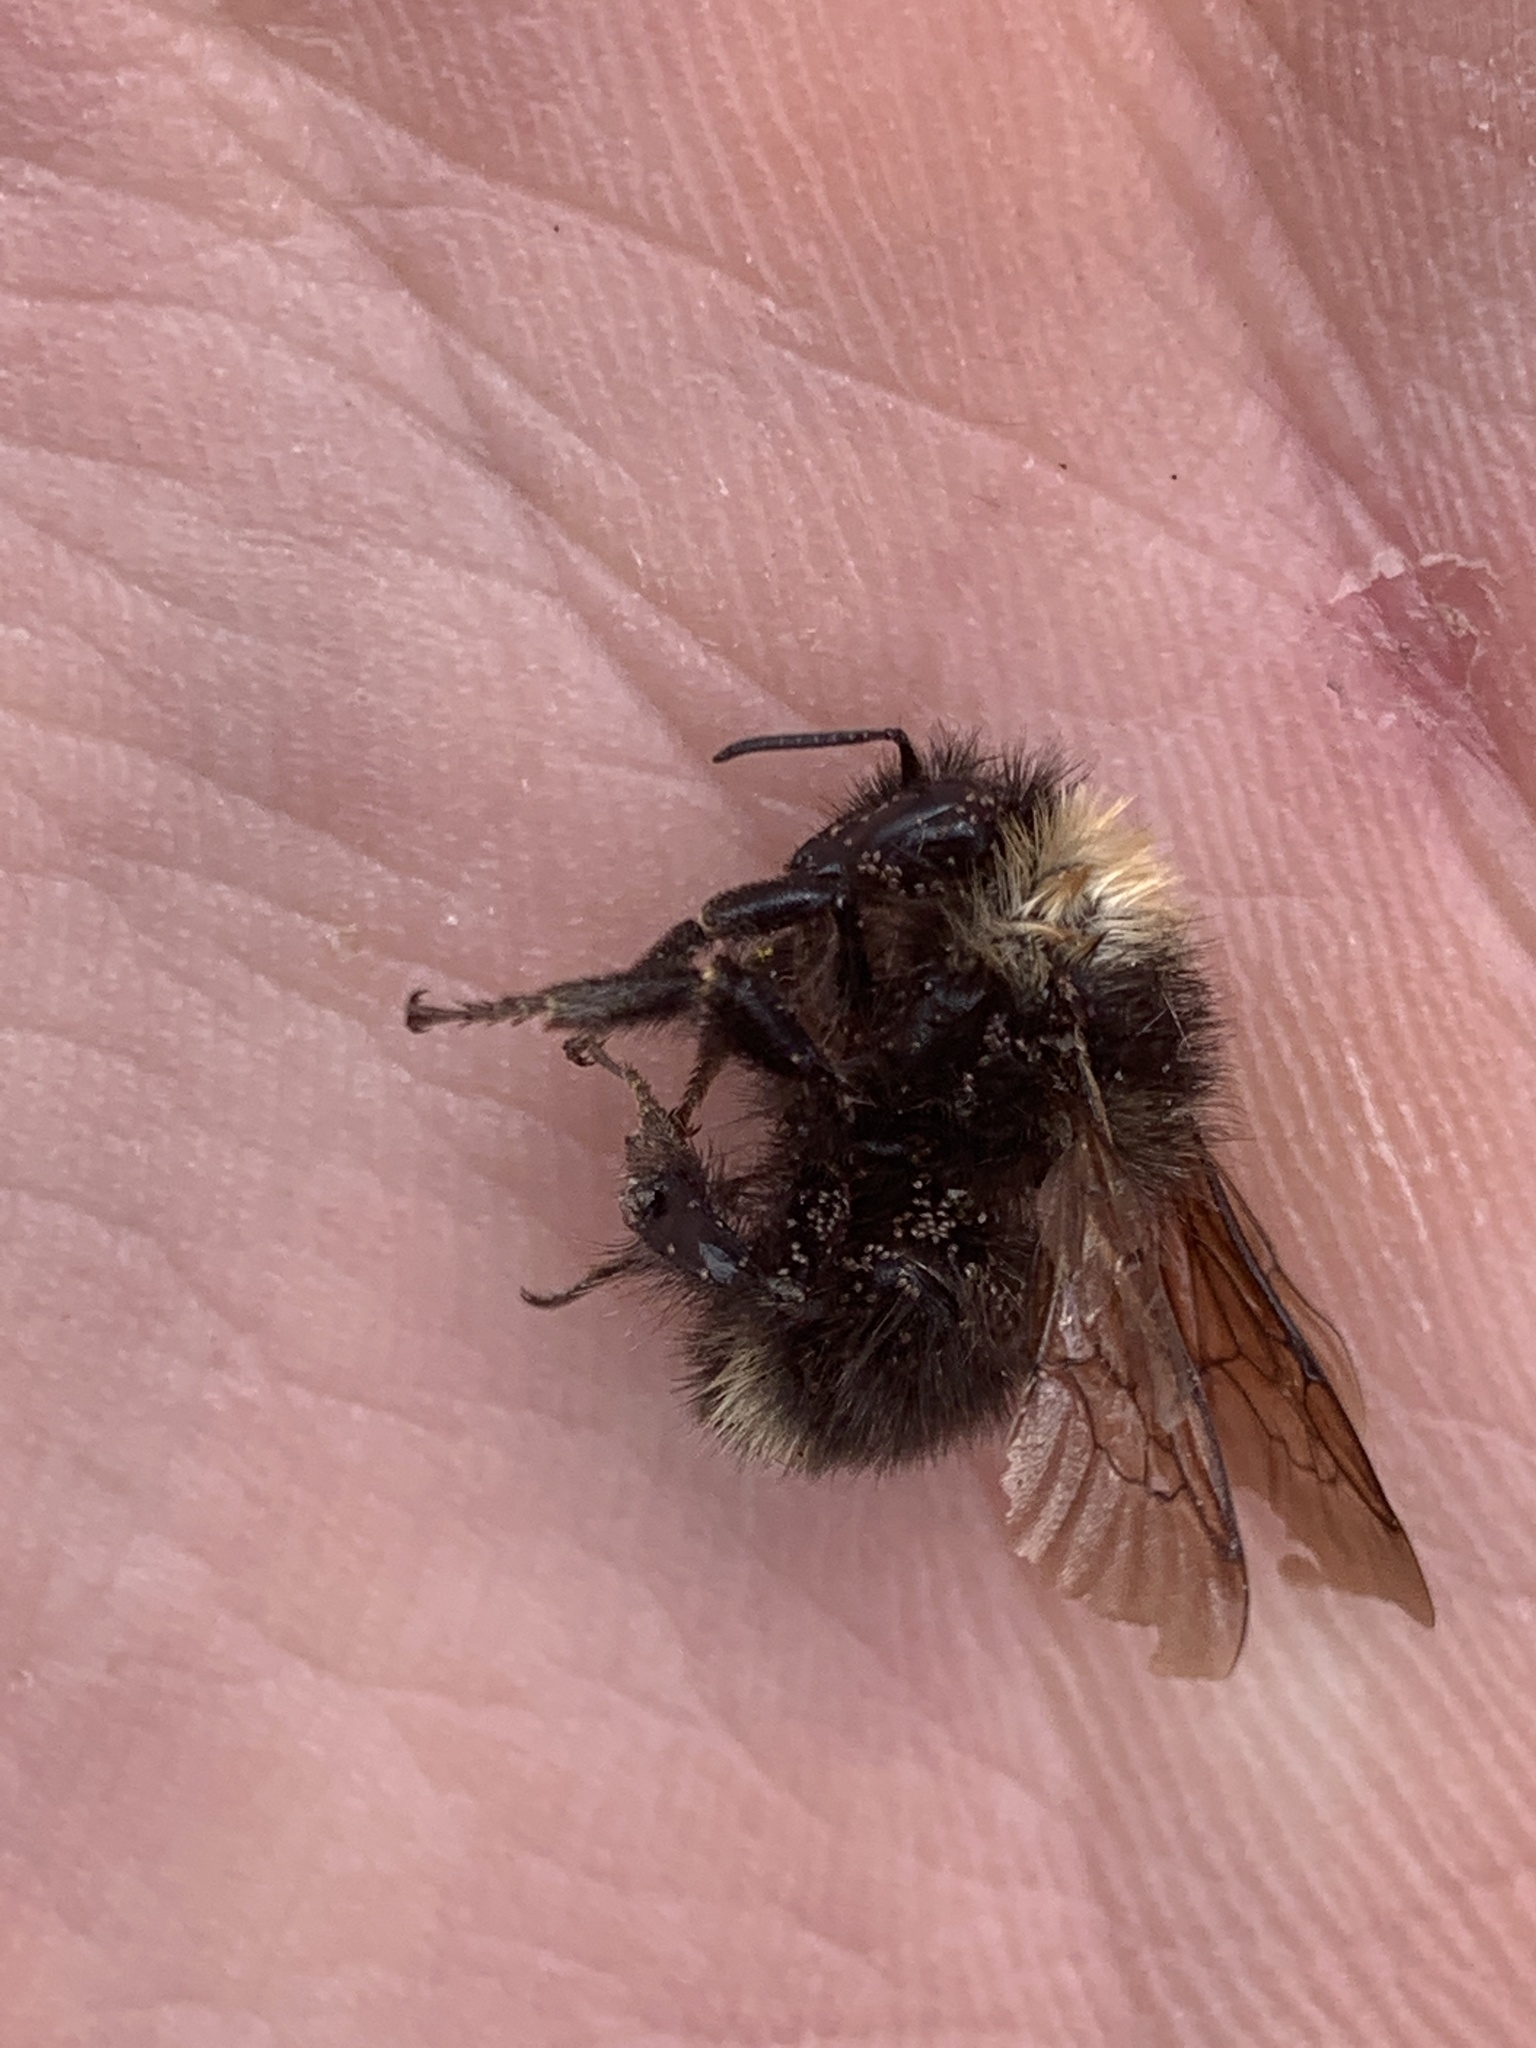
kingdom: Animalia
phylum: Arthropoda
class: Insecta
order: Hymenoptera
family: Apidae
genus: Bombus
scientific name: Bombus occidentalis
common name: Western bumble bee
